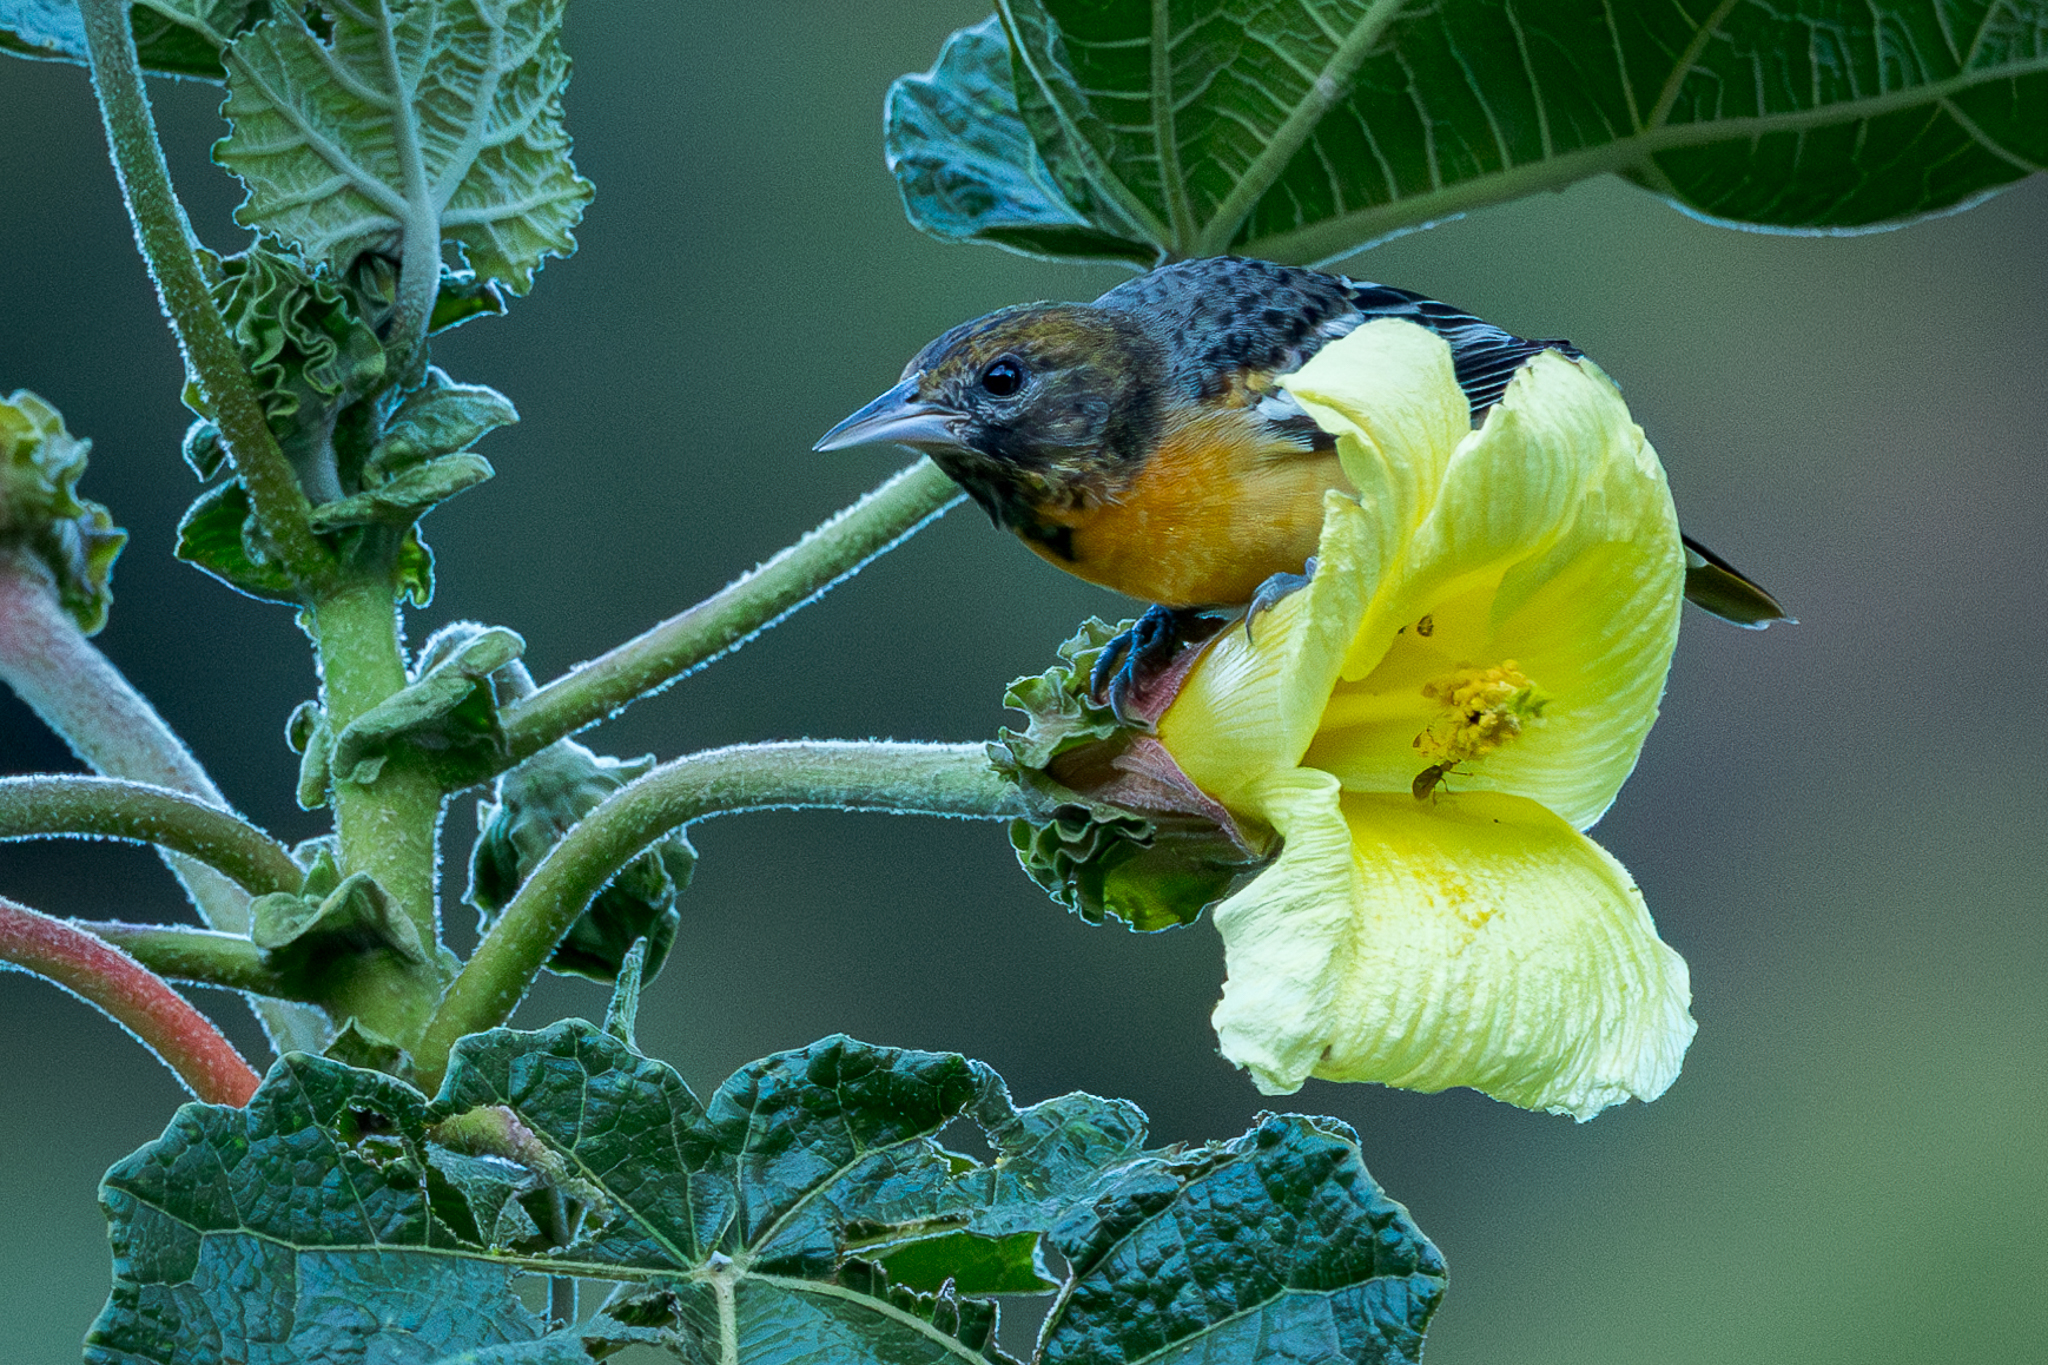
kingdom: Animalia
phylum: Chordata
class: Aves
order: Passeriformes
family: Icteridae
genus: Icterus
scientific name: Icterus galbula
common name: Baltimore oriole
